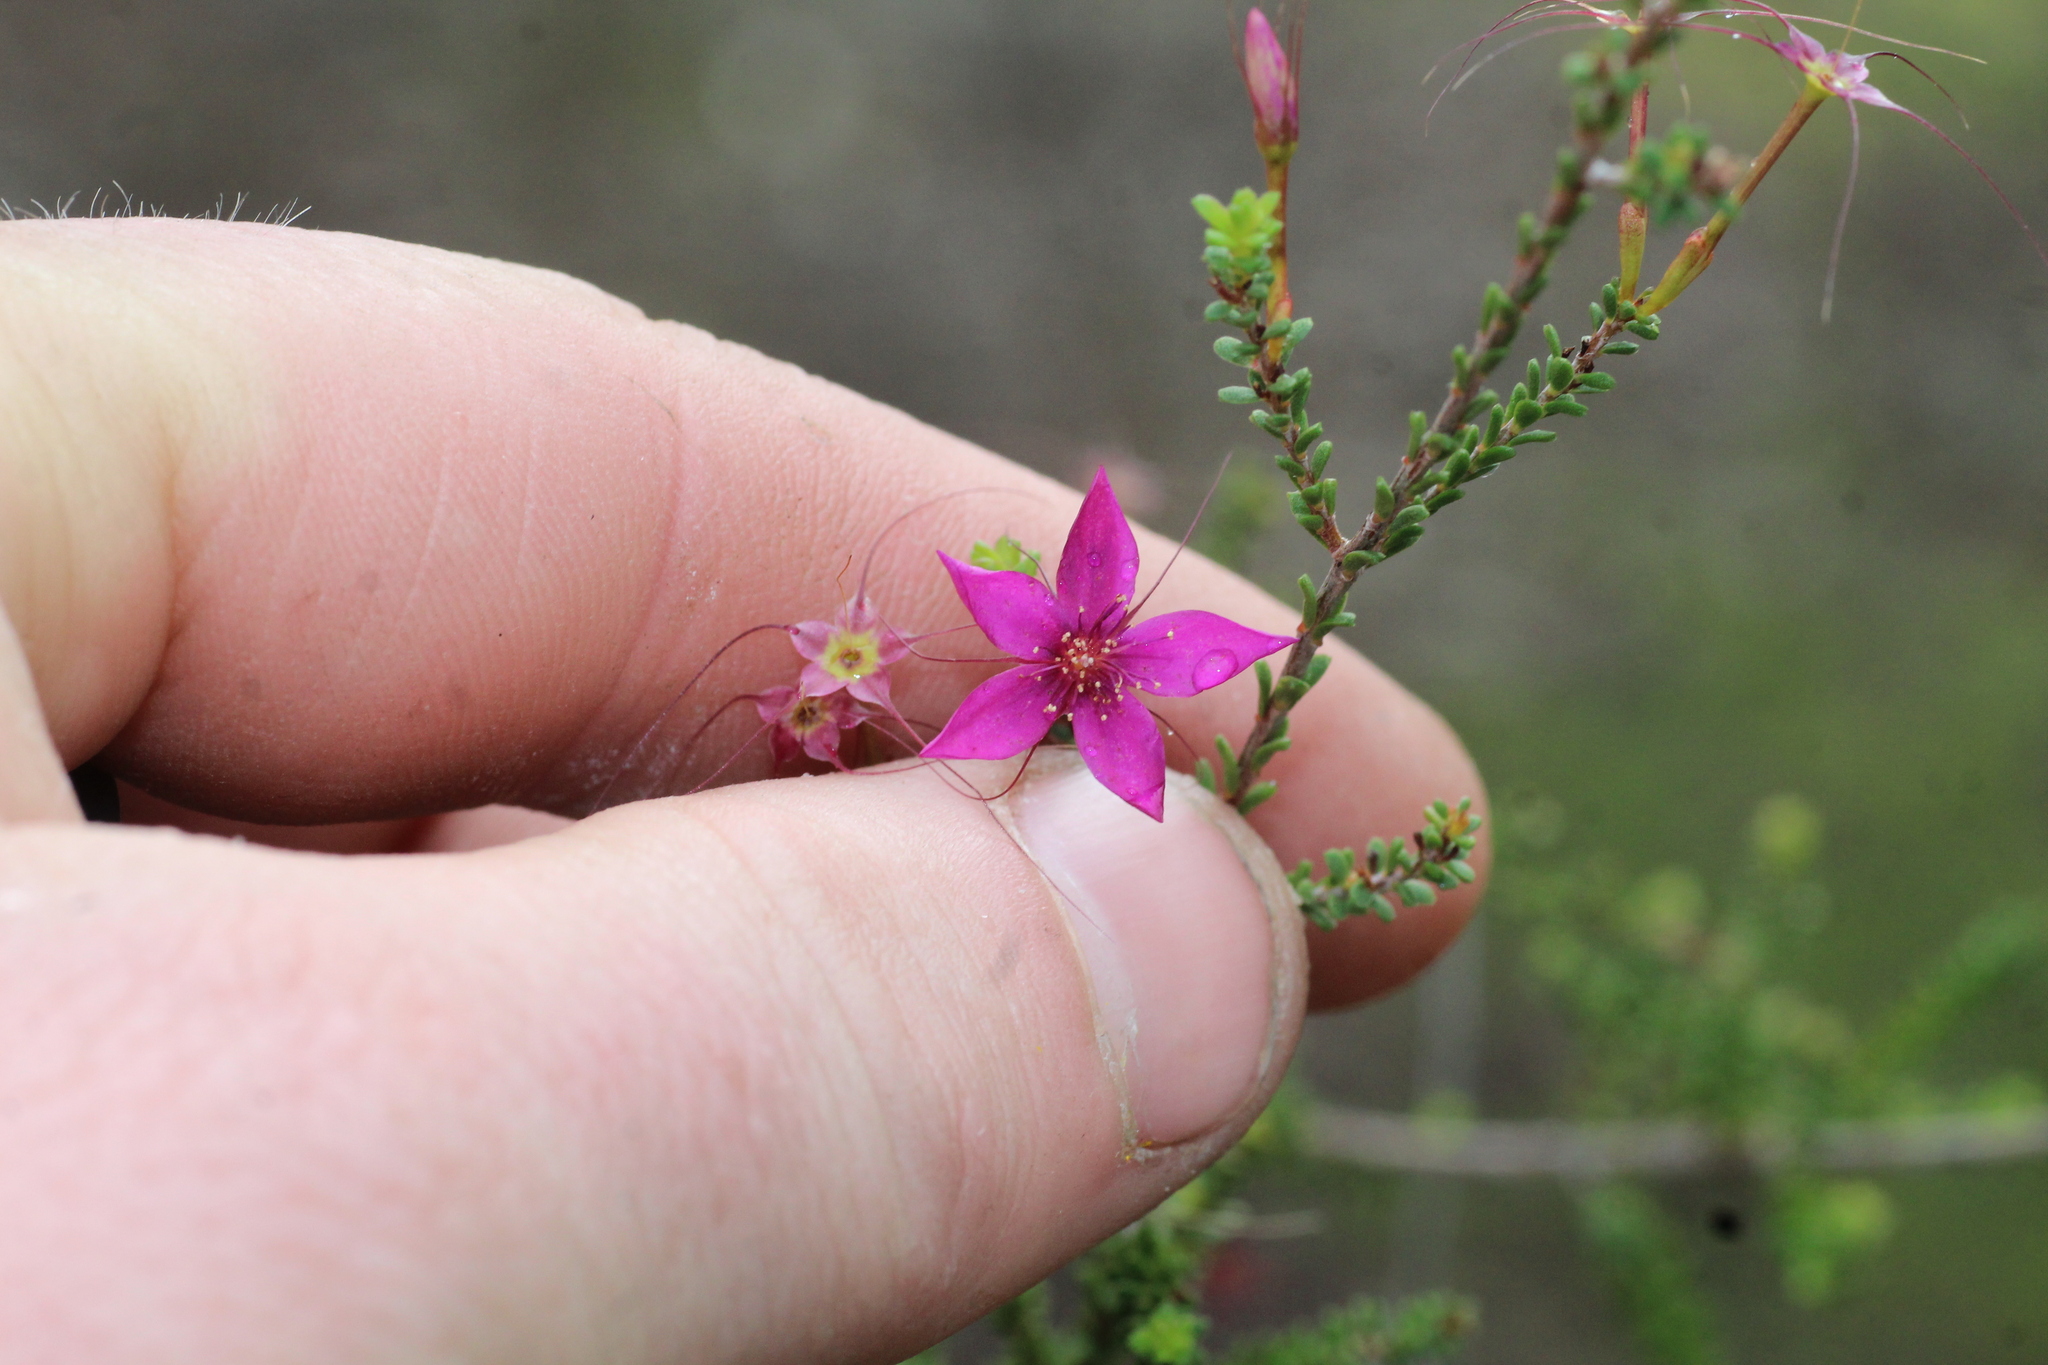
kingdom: Plantae
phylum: Tracheophyta
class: Magnoliopsida
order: Myrtales
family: Myrtaceae
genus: Calytrix
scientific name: Calytrix fraseri
